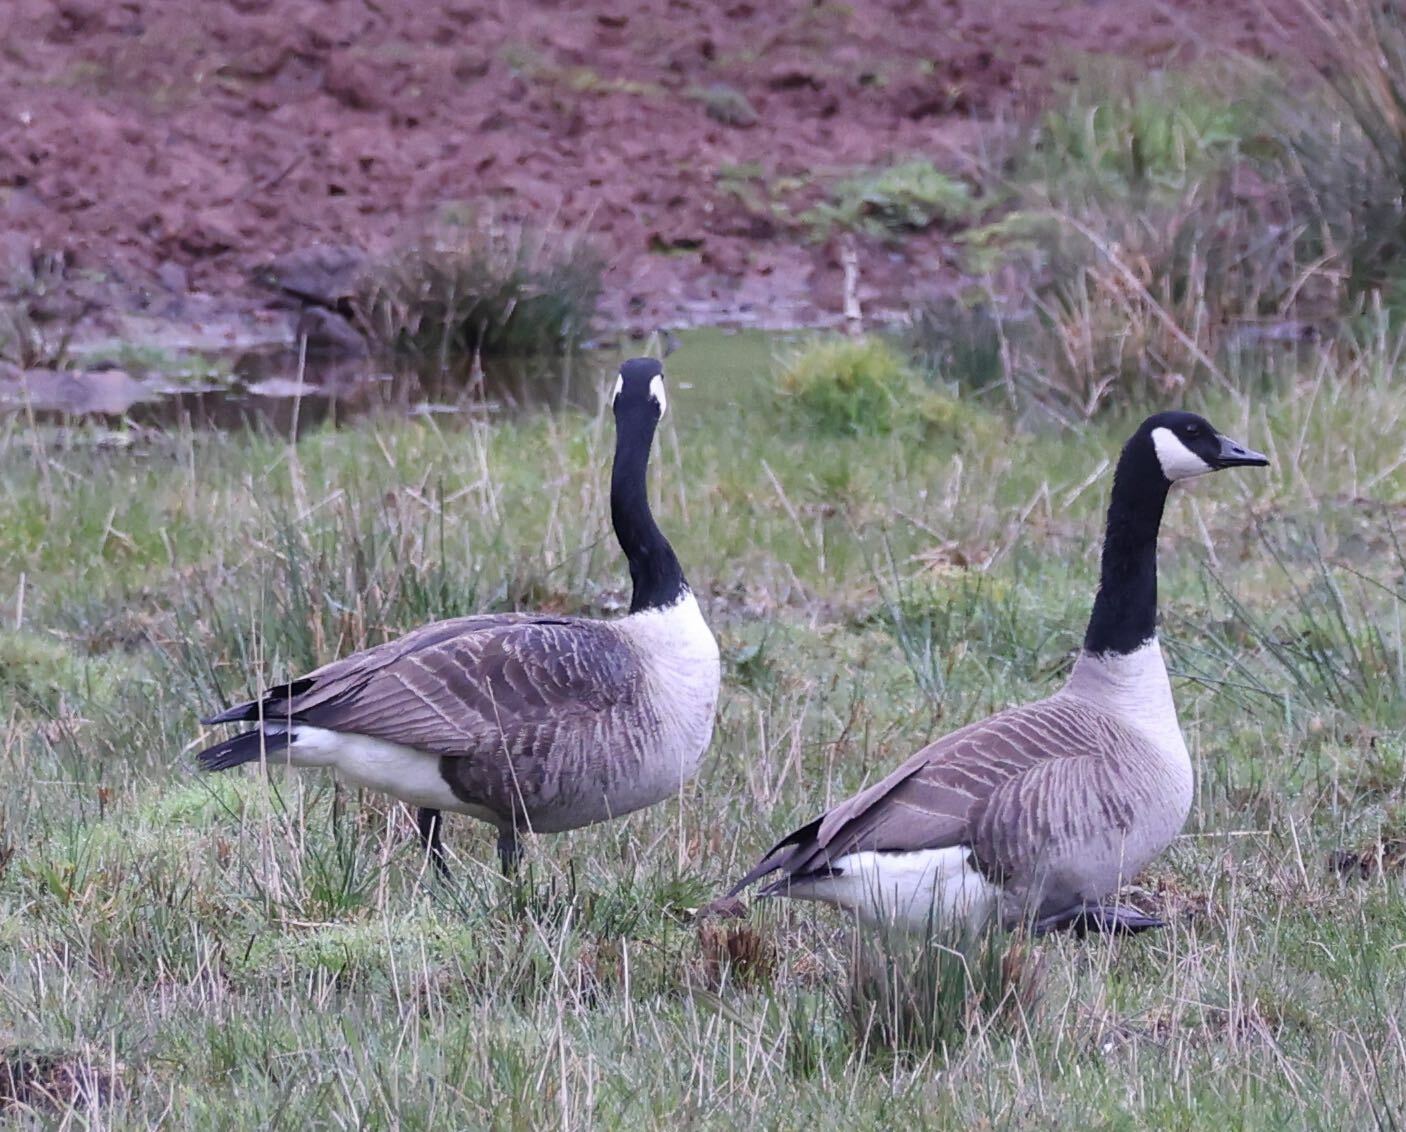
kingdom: Animalia
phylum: Chordata
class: Aves
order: Anseriformes
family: Anatidae
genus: Branta
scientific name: Branta canadensis
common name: Canada goose
